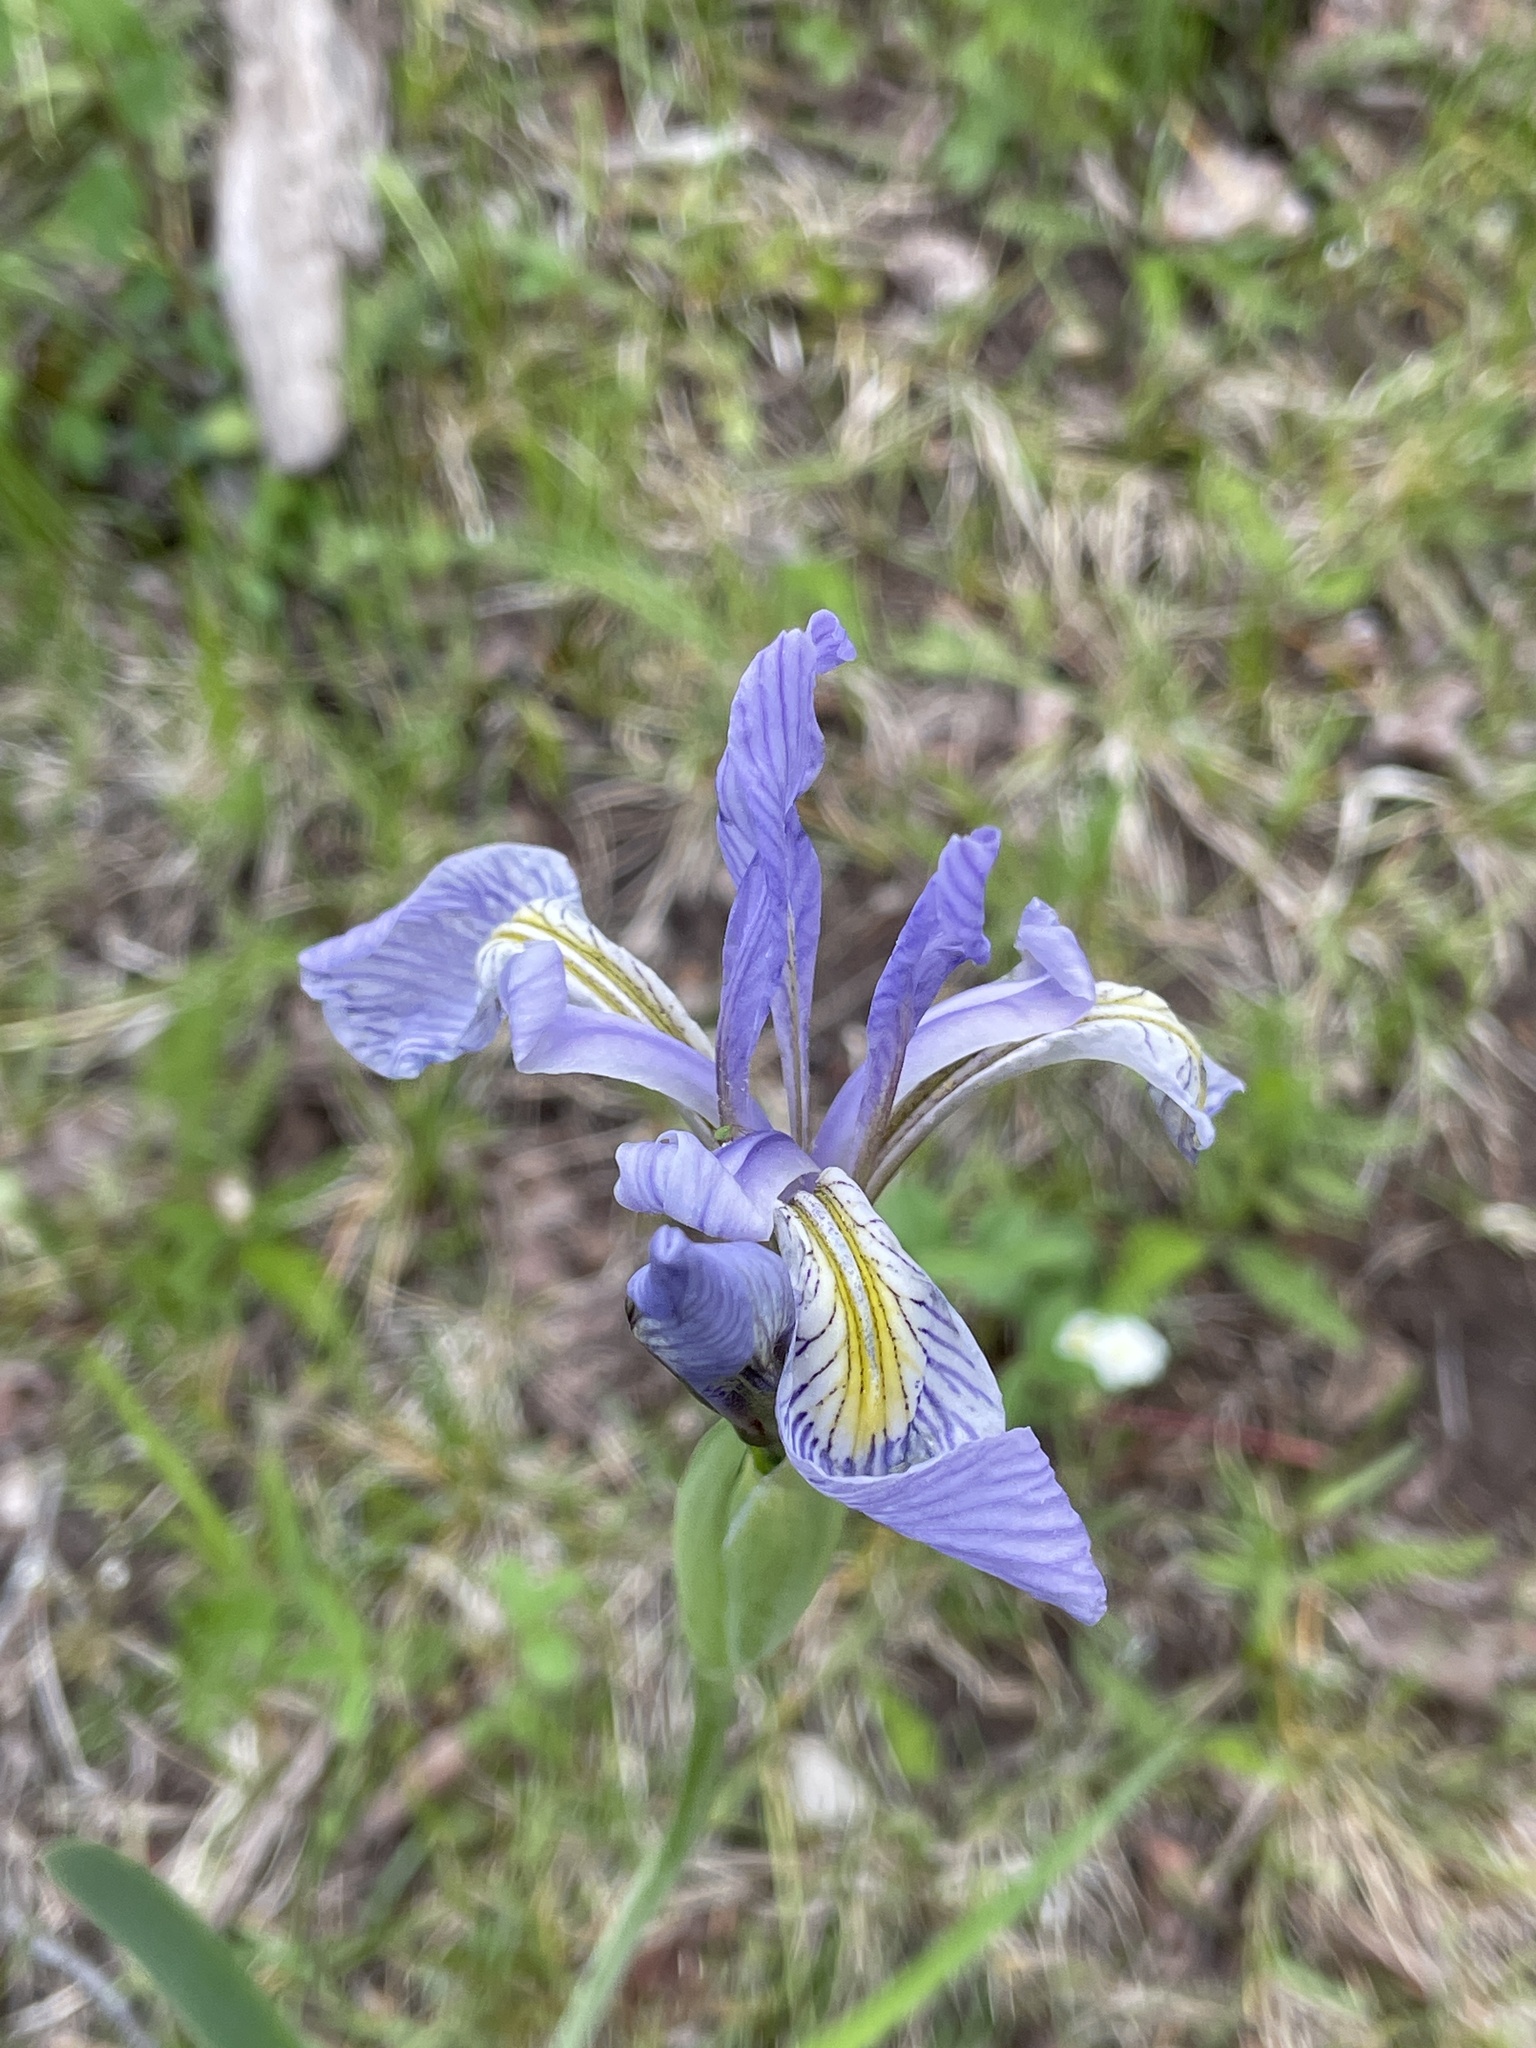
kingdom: Plantae
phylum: Tracheophyta
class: Liliopsida
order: Asparagales
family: Iridaceae
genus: Iris
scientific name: Iris missouriensis
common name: Rocky mountain iris
